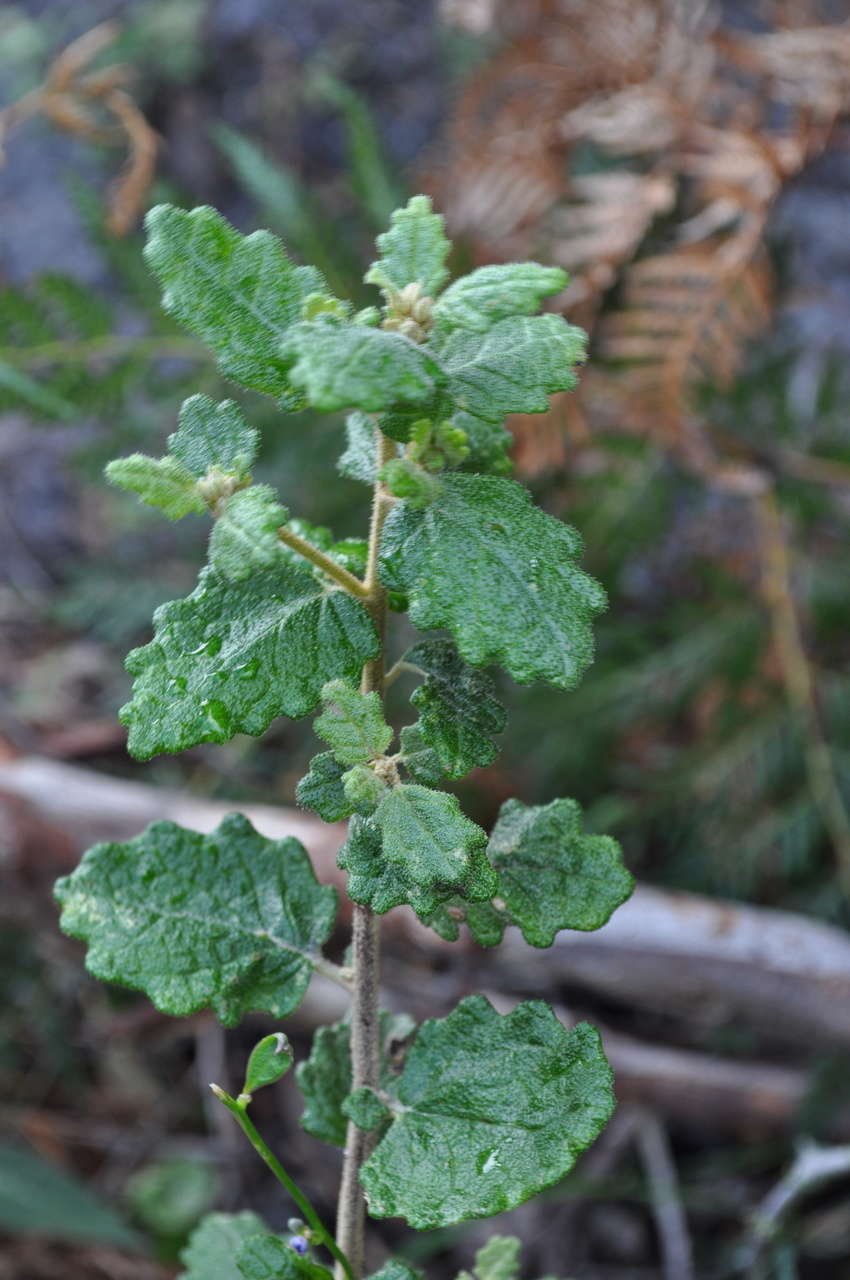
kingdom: Plantae
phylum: Tracheophyta
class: Magnoliopsida
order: Asterales
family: Asteraceae
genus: Olearia
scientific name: Olearia rugosa
